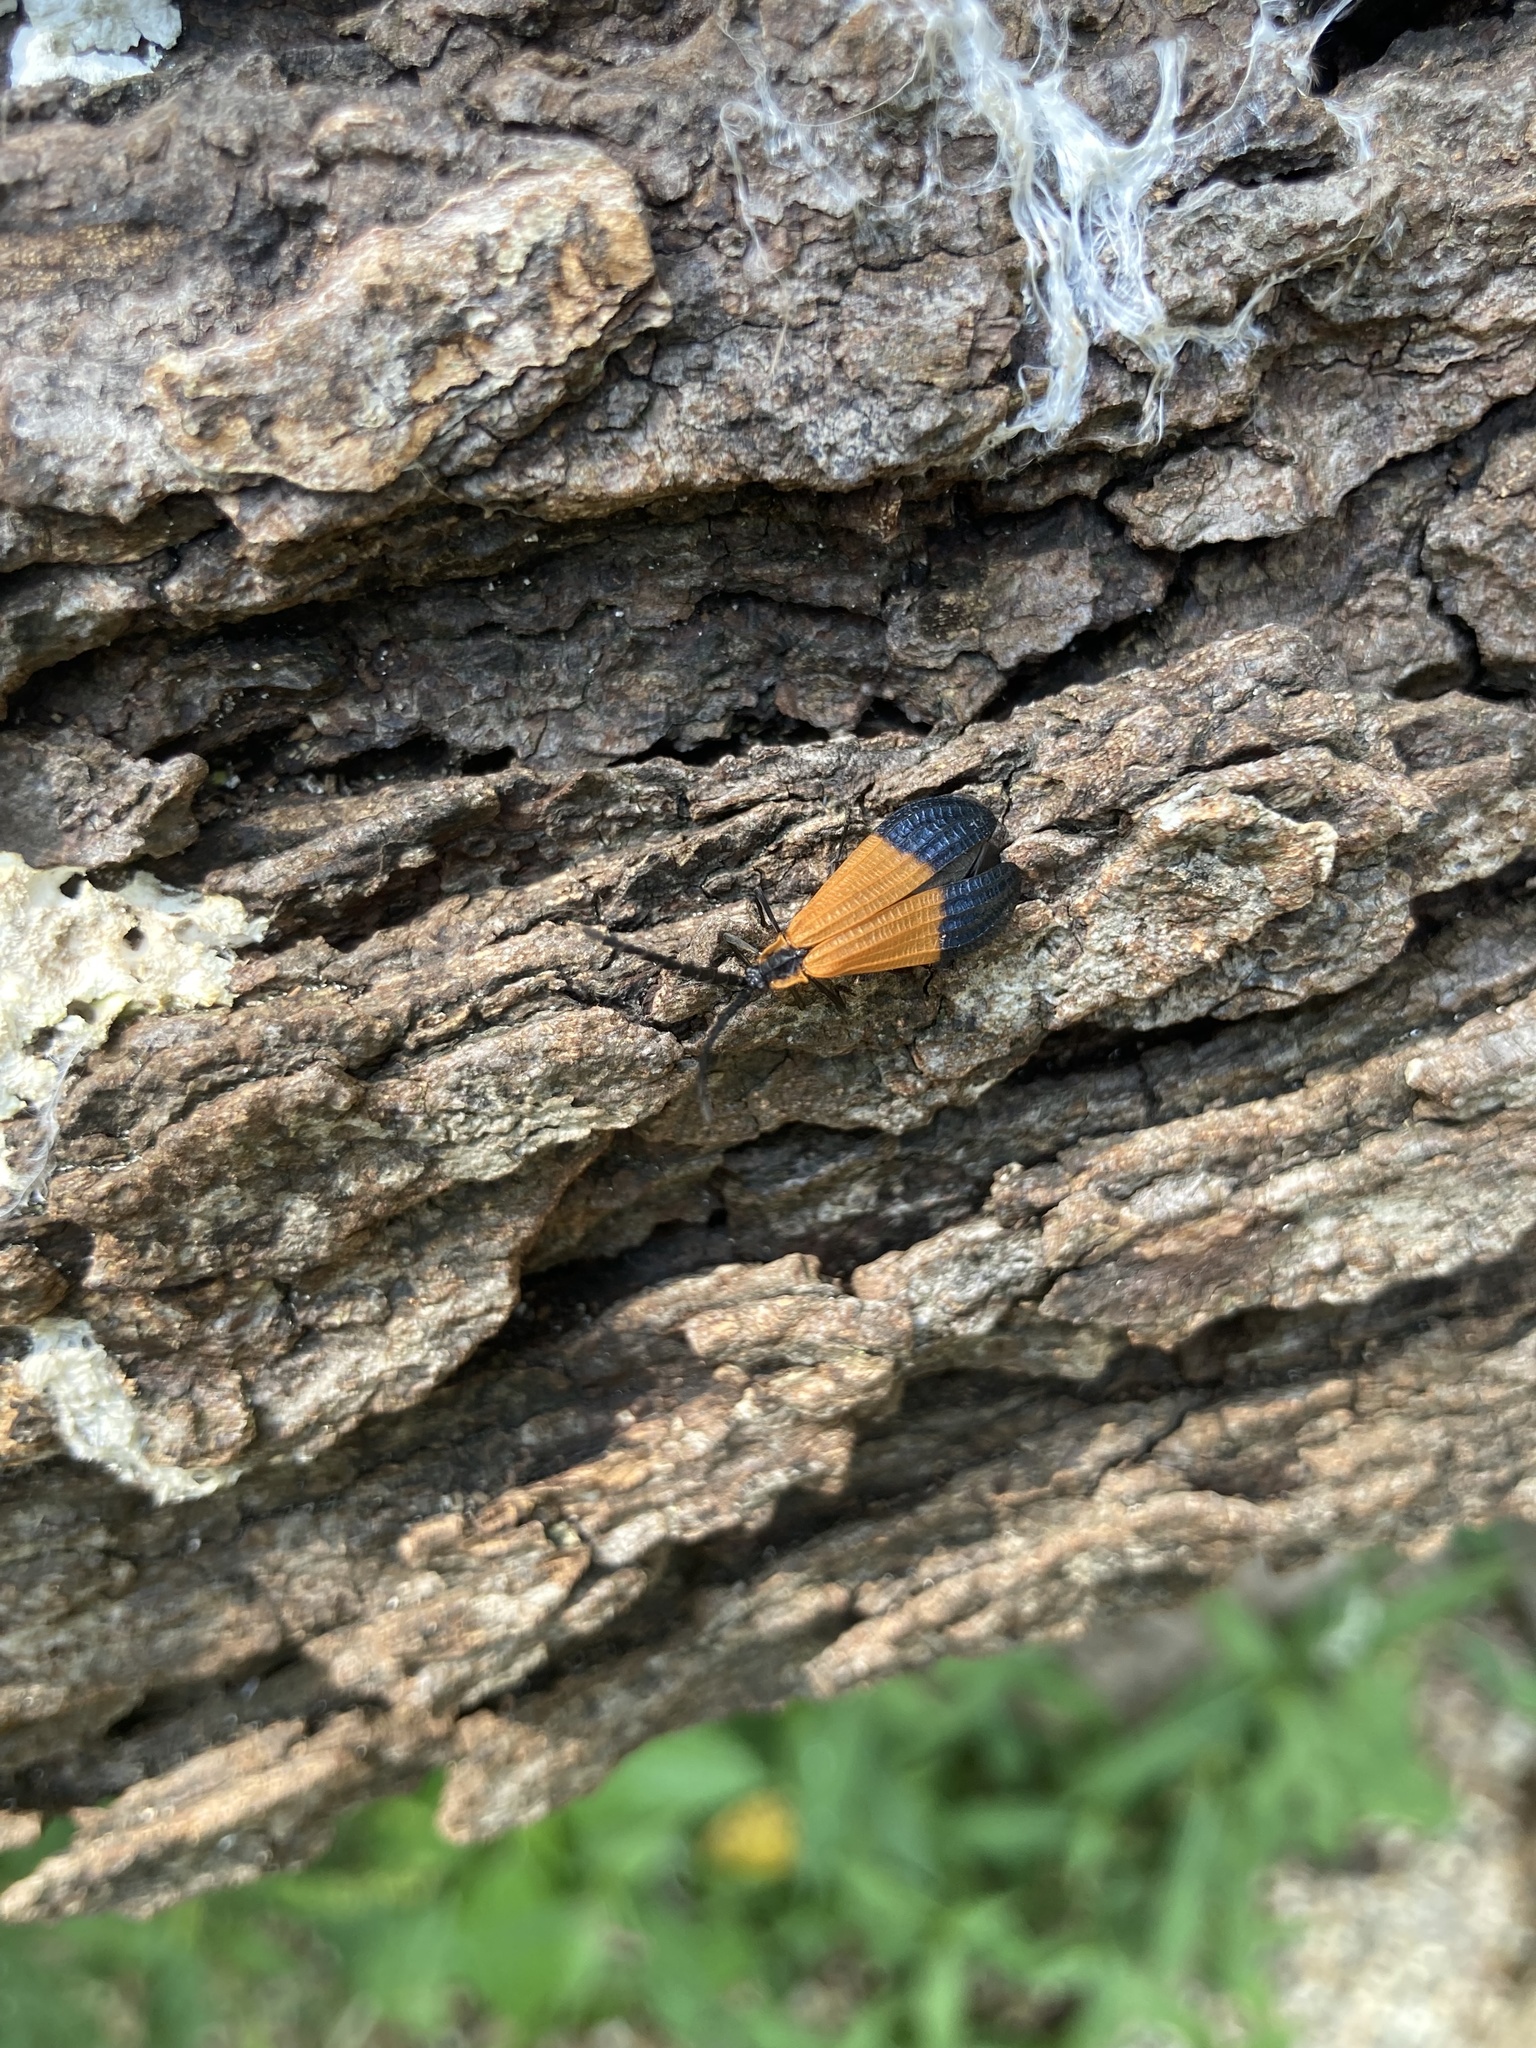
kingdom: Animalia
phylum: Arthropoda
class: Insecta
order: Coleoptera
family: Lycidae
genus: Calopteron
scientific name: Calopteron terminale
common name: End band net-winged beetle
